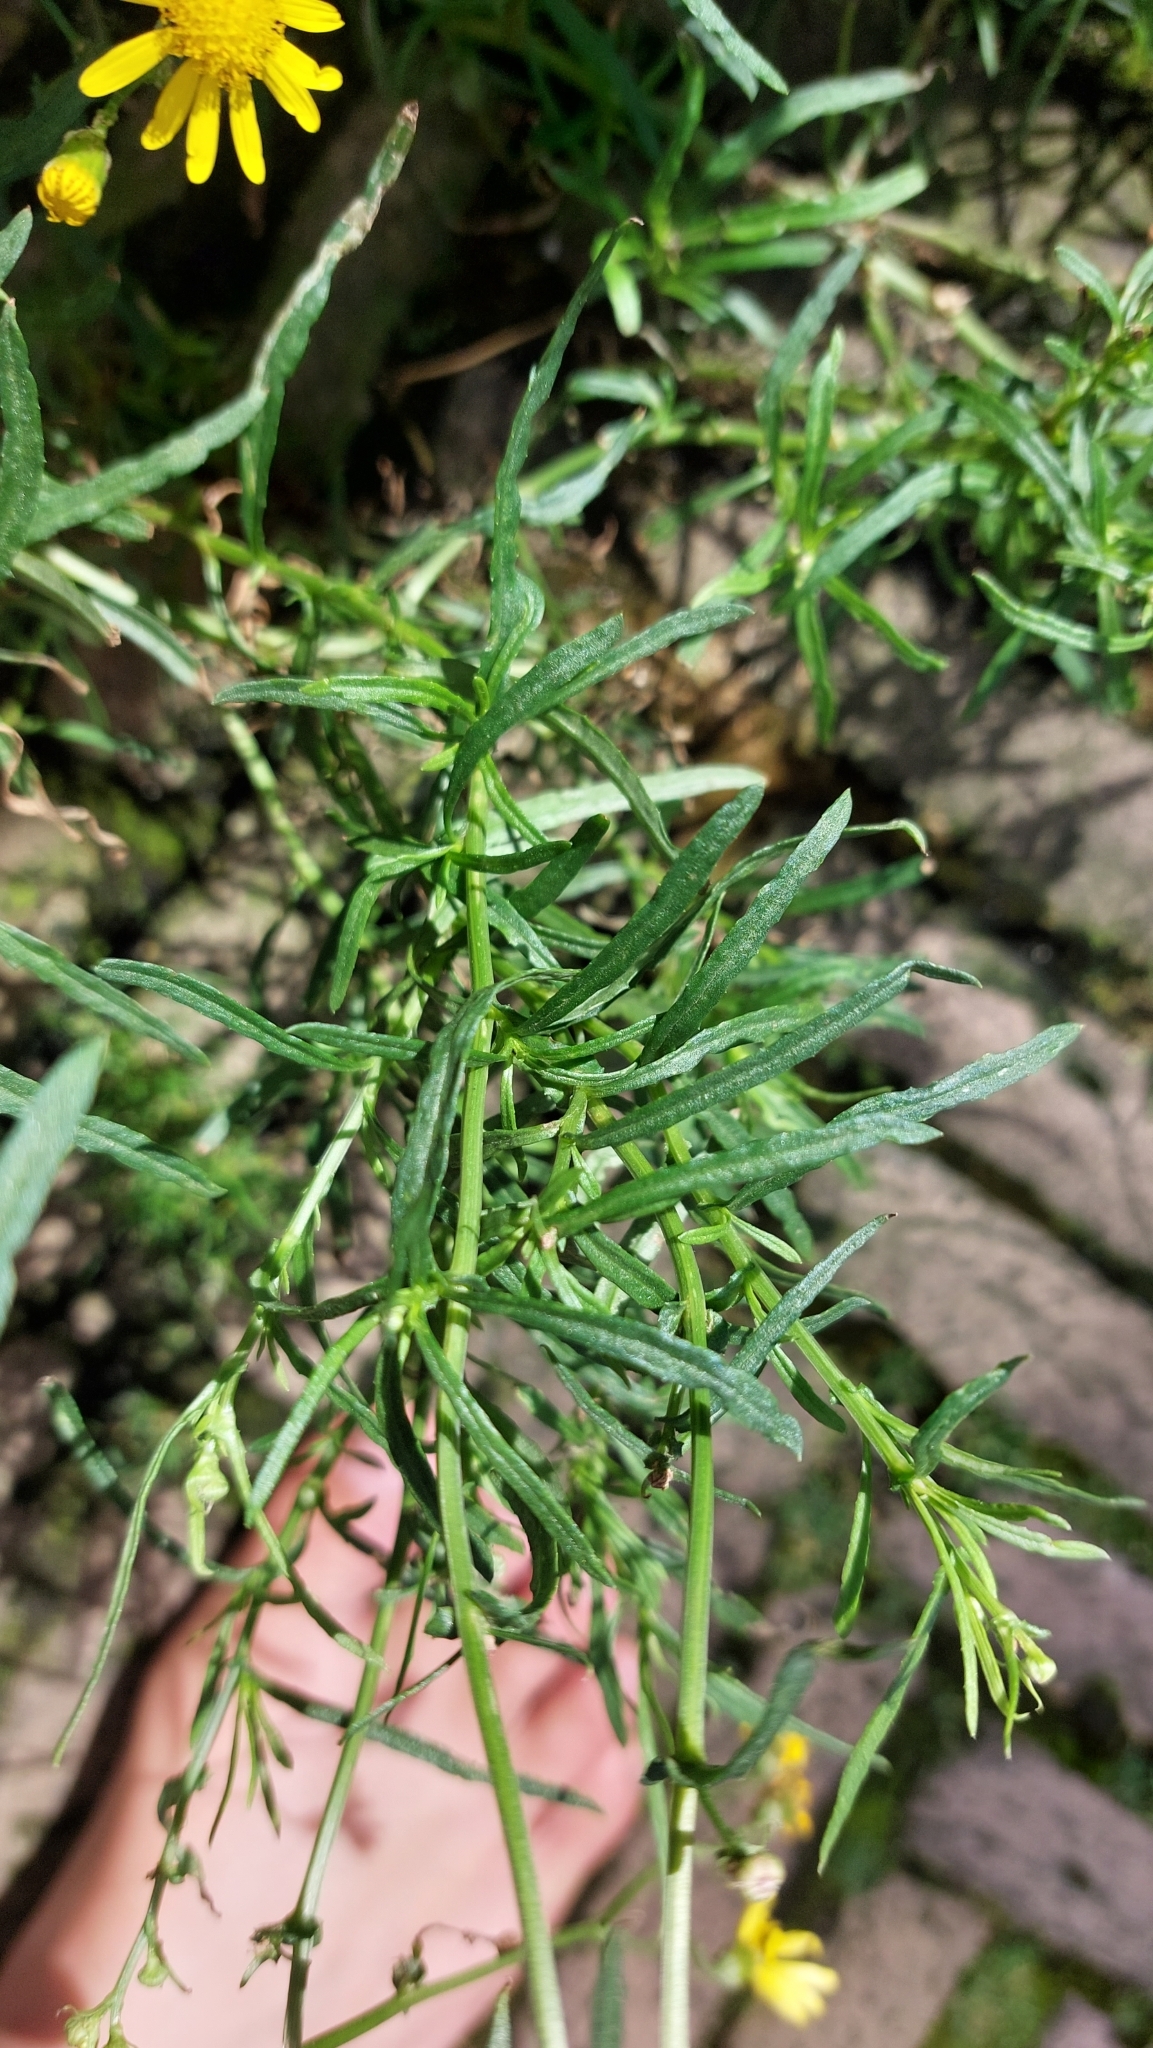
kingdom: Plantae
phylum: Tracheophyta
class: Magnoliopsida
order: Asterales
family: Asteraceae
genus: Senecio
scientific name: Senecio inaequidens
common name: Narrow-leaved ragwort
